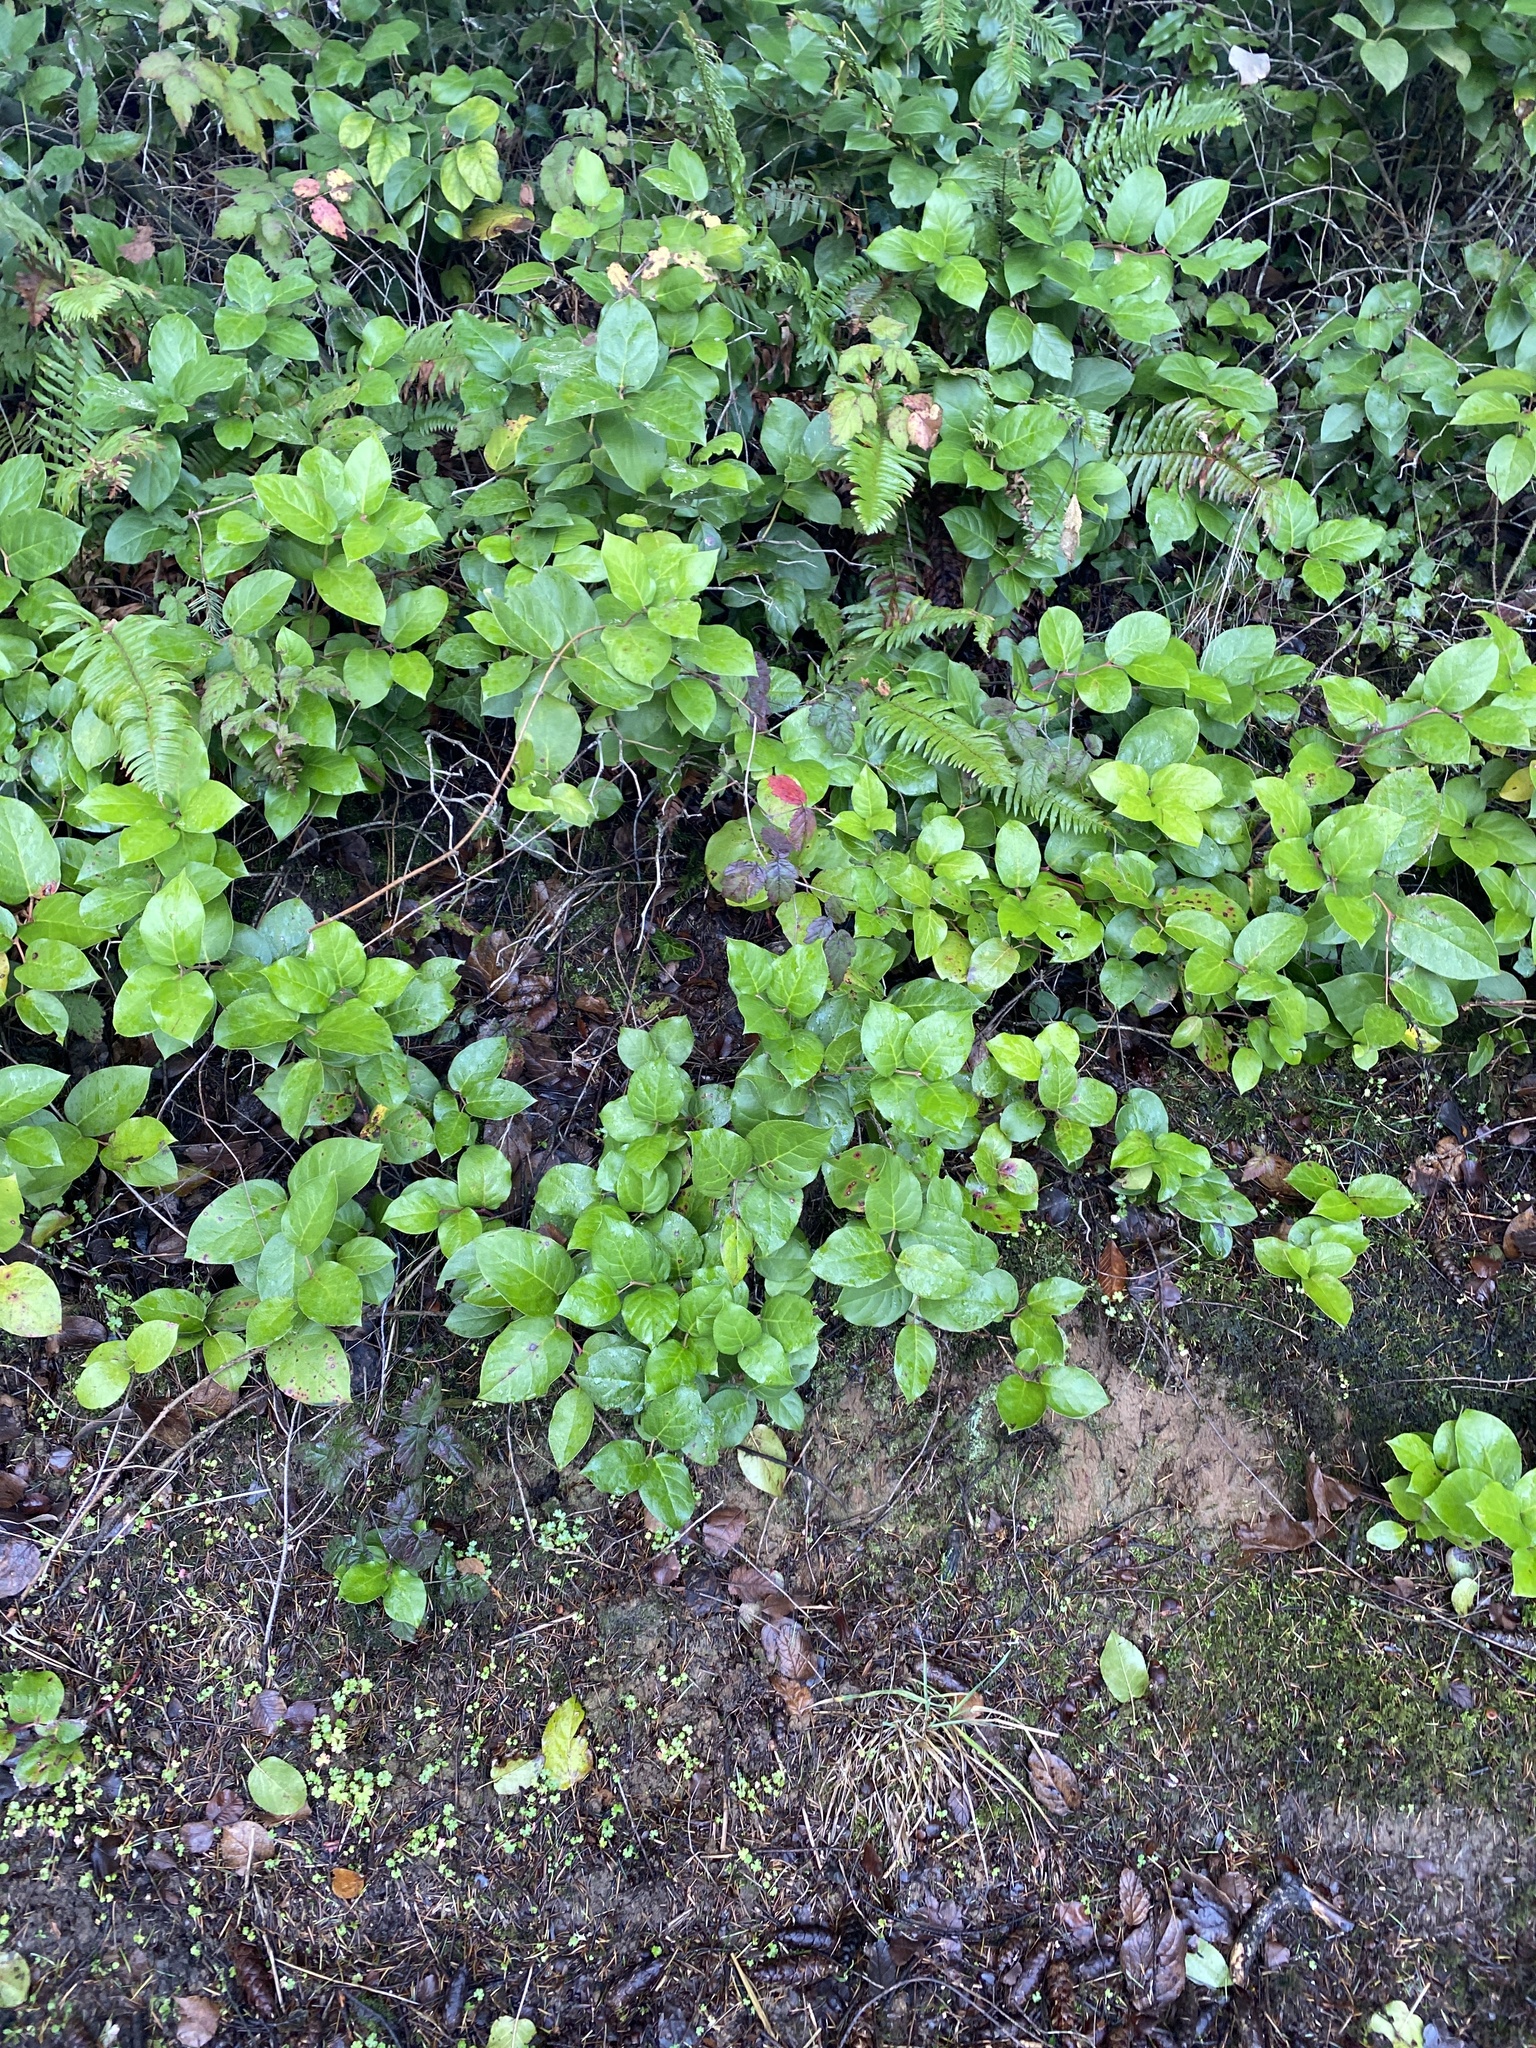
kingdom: Plantae
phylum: Tracheophyta
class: Magnoliopsida
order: Ericales
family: Ericaceae
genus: Gaultheria
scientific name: Gaultheria shallon
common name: Shallon
